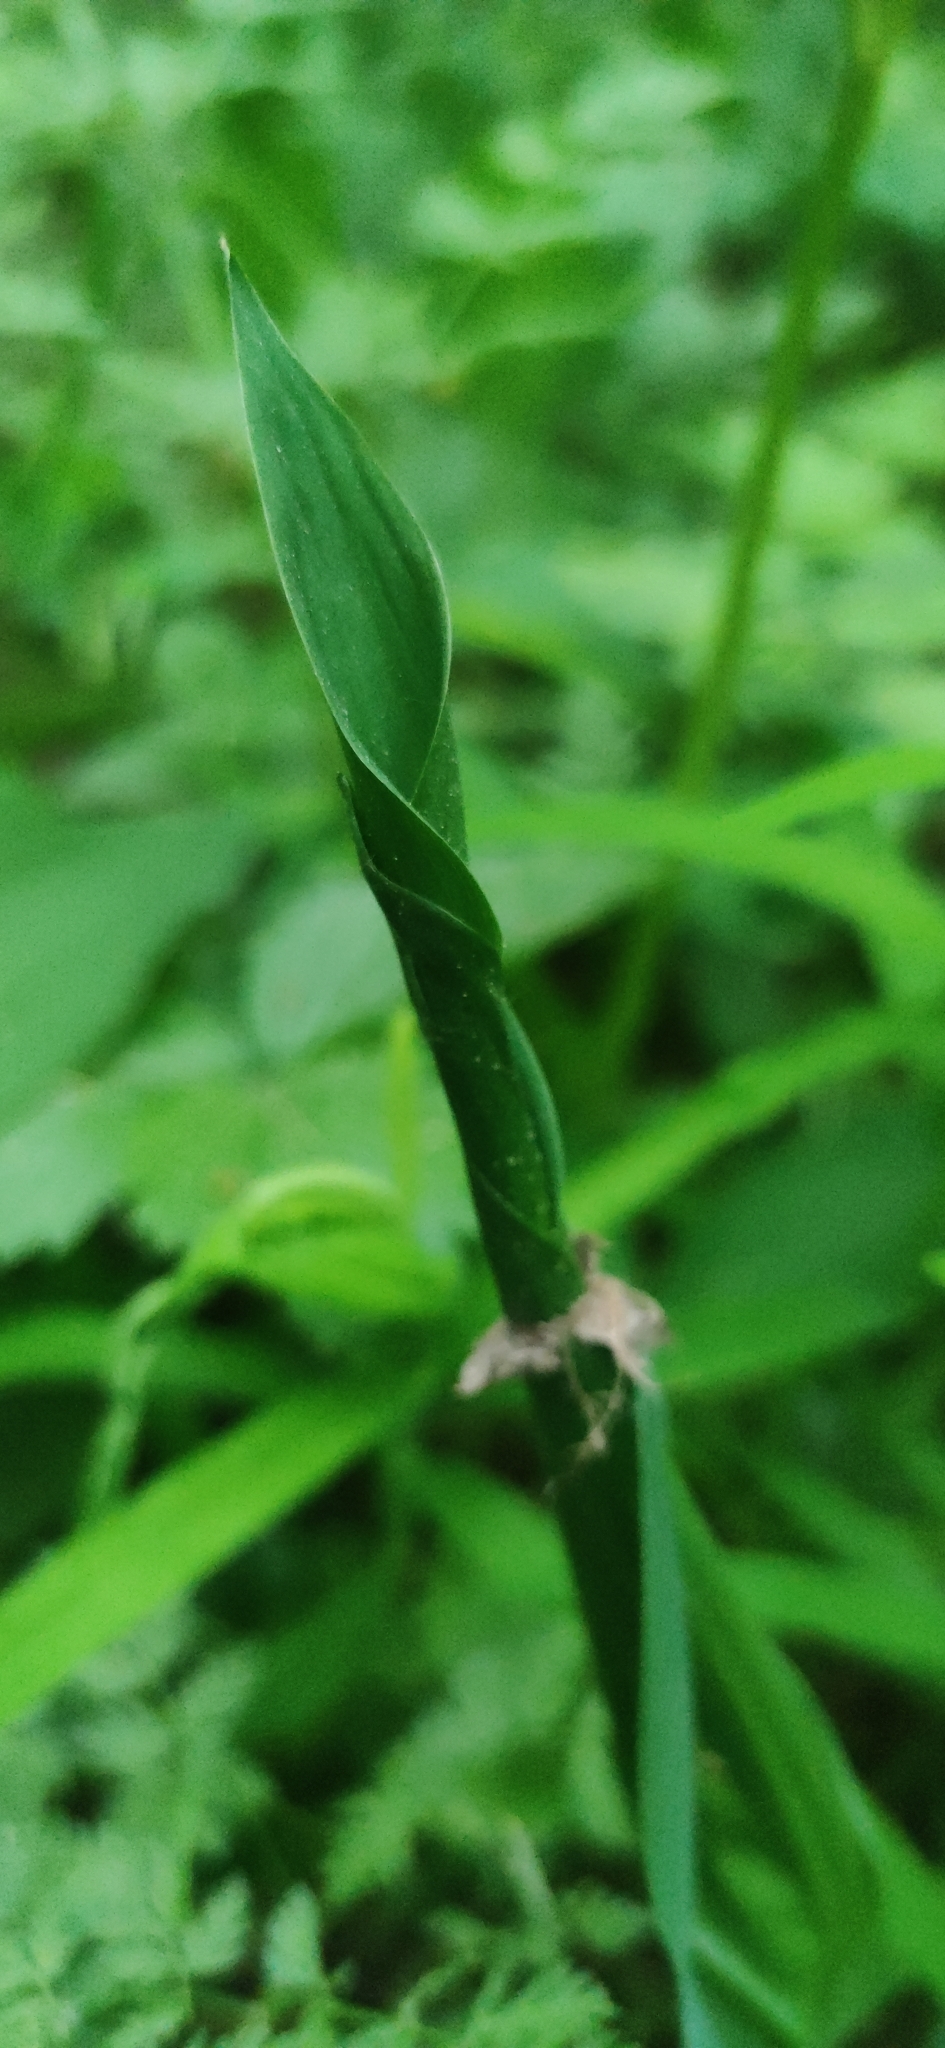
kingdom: Plantae
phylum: Tracheophyta
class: Liliopsida
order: Asparagales
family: Asparagaceae
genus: Convallaria
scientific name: Convallaria majalis
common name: Lily-of-the-valley
